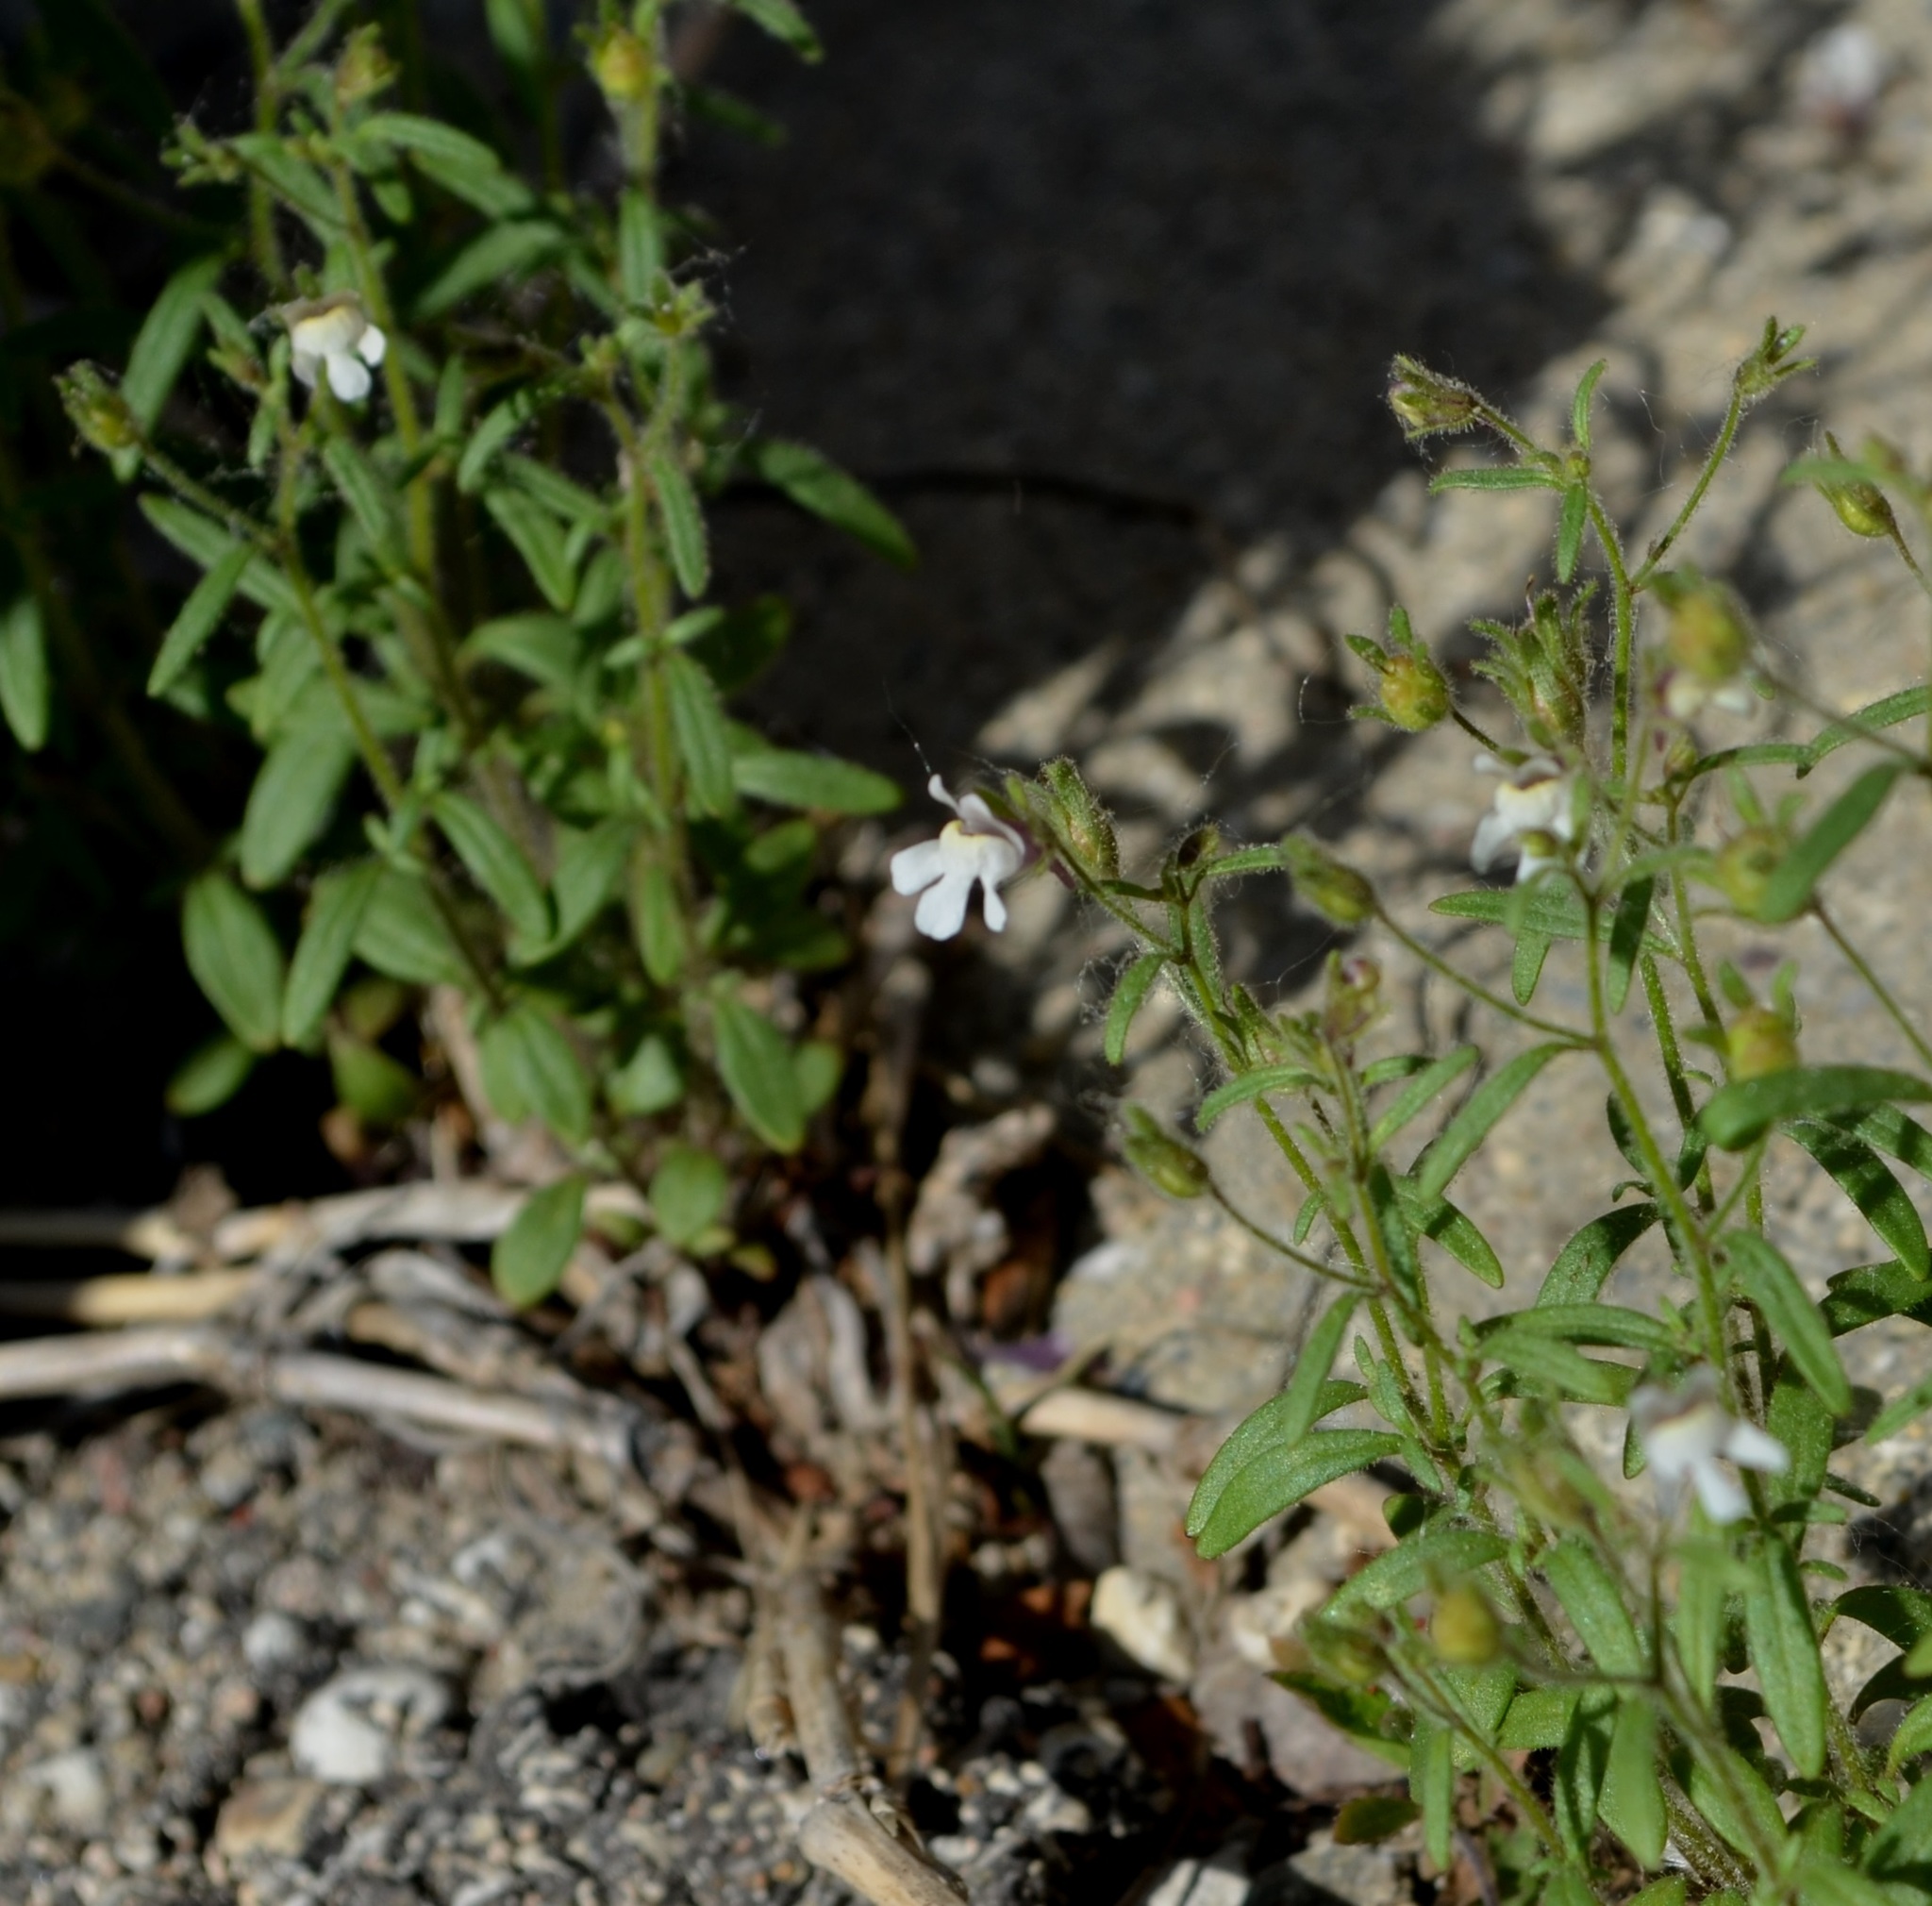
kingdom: Plantae
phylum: Tracheophyta
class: Magnoliopsida
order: Lamiales
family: Plantaginaceae
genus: Chaenorhinum
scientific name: Chaenorhinum minus
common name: Dwarf snapdragon
